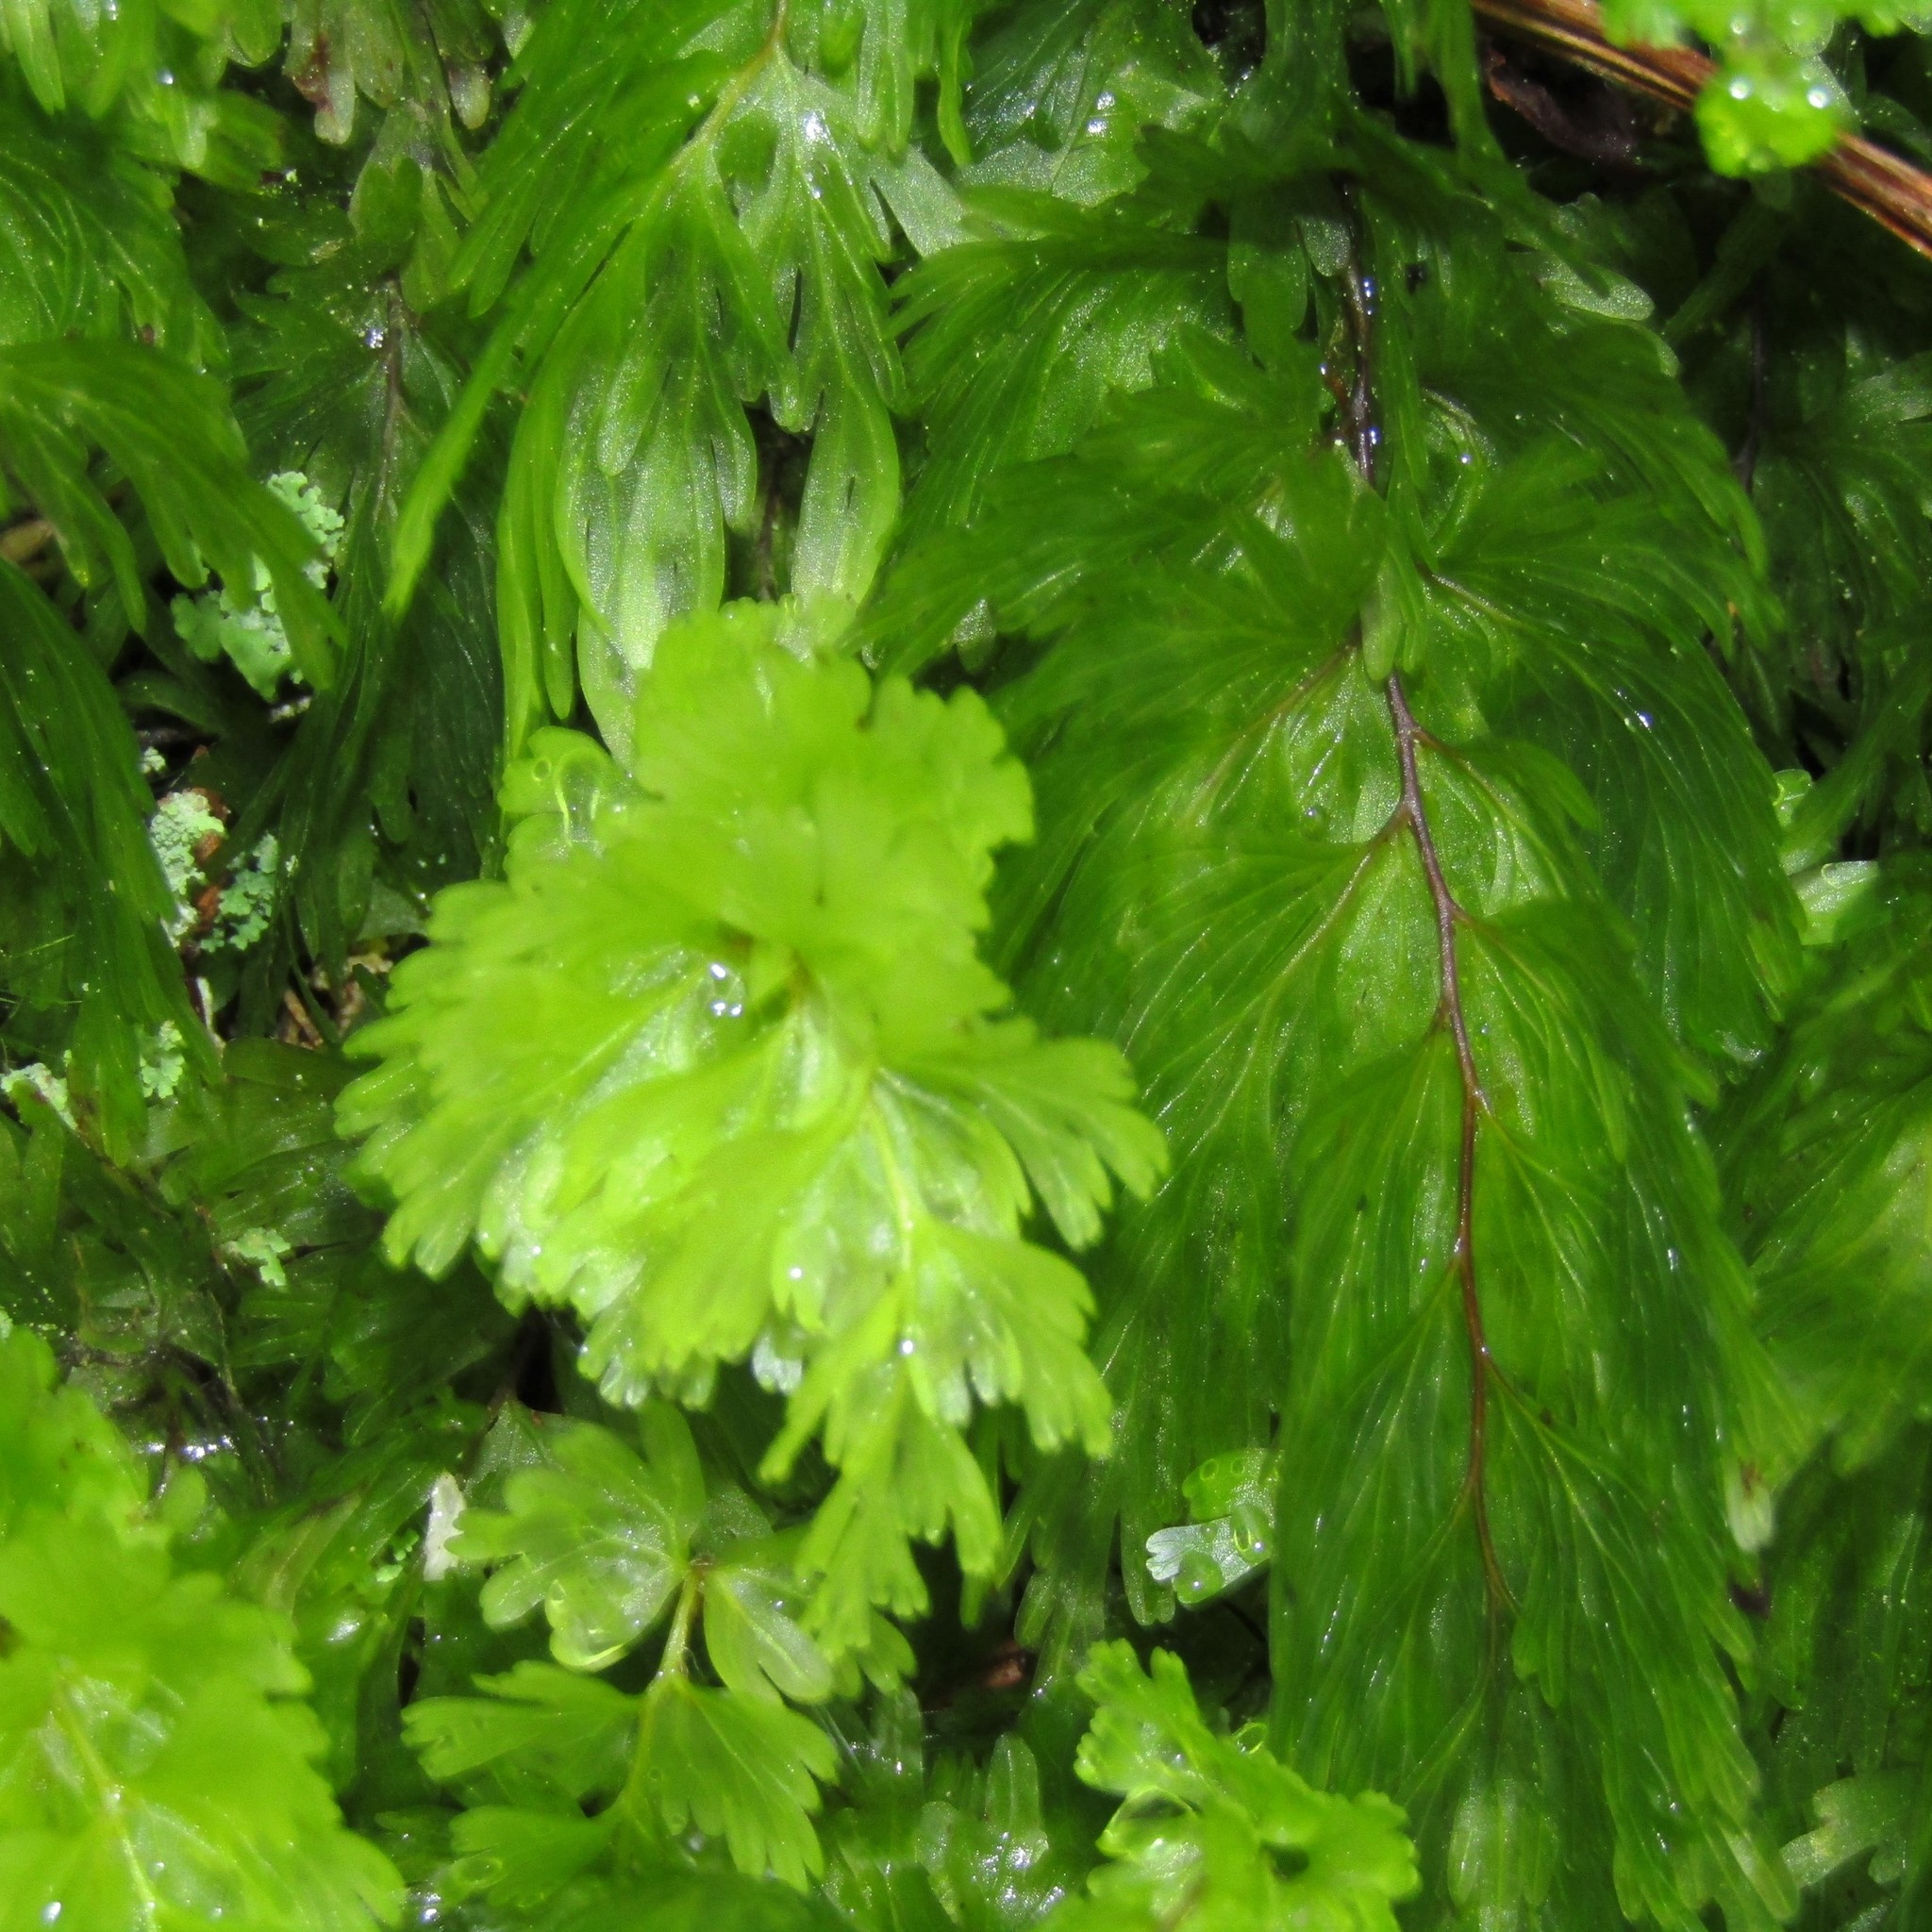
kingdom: Plantae
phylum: Tracheophyta
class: Polypodiopsida
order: Hymenophyllales
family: Hymenophyllaceae
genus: Hymenophyllum
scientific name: Hymenophyllum flabellatum
